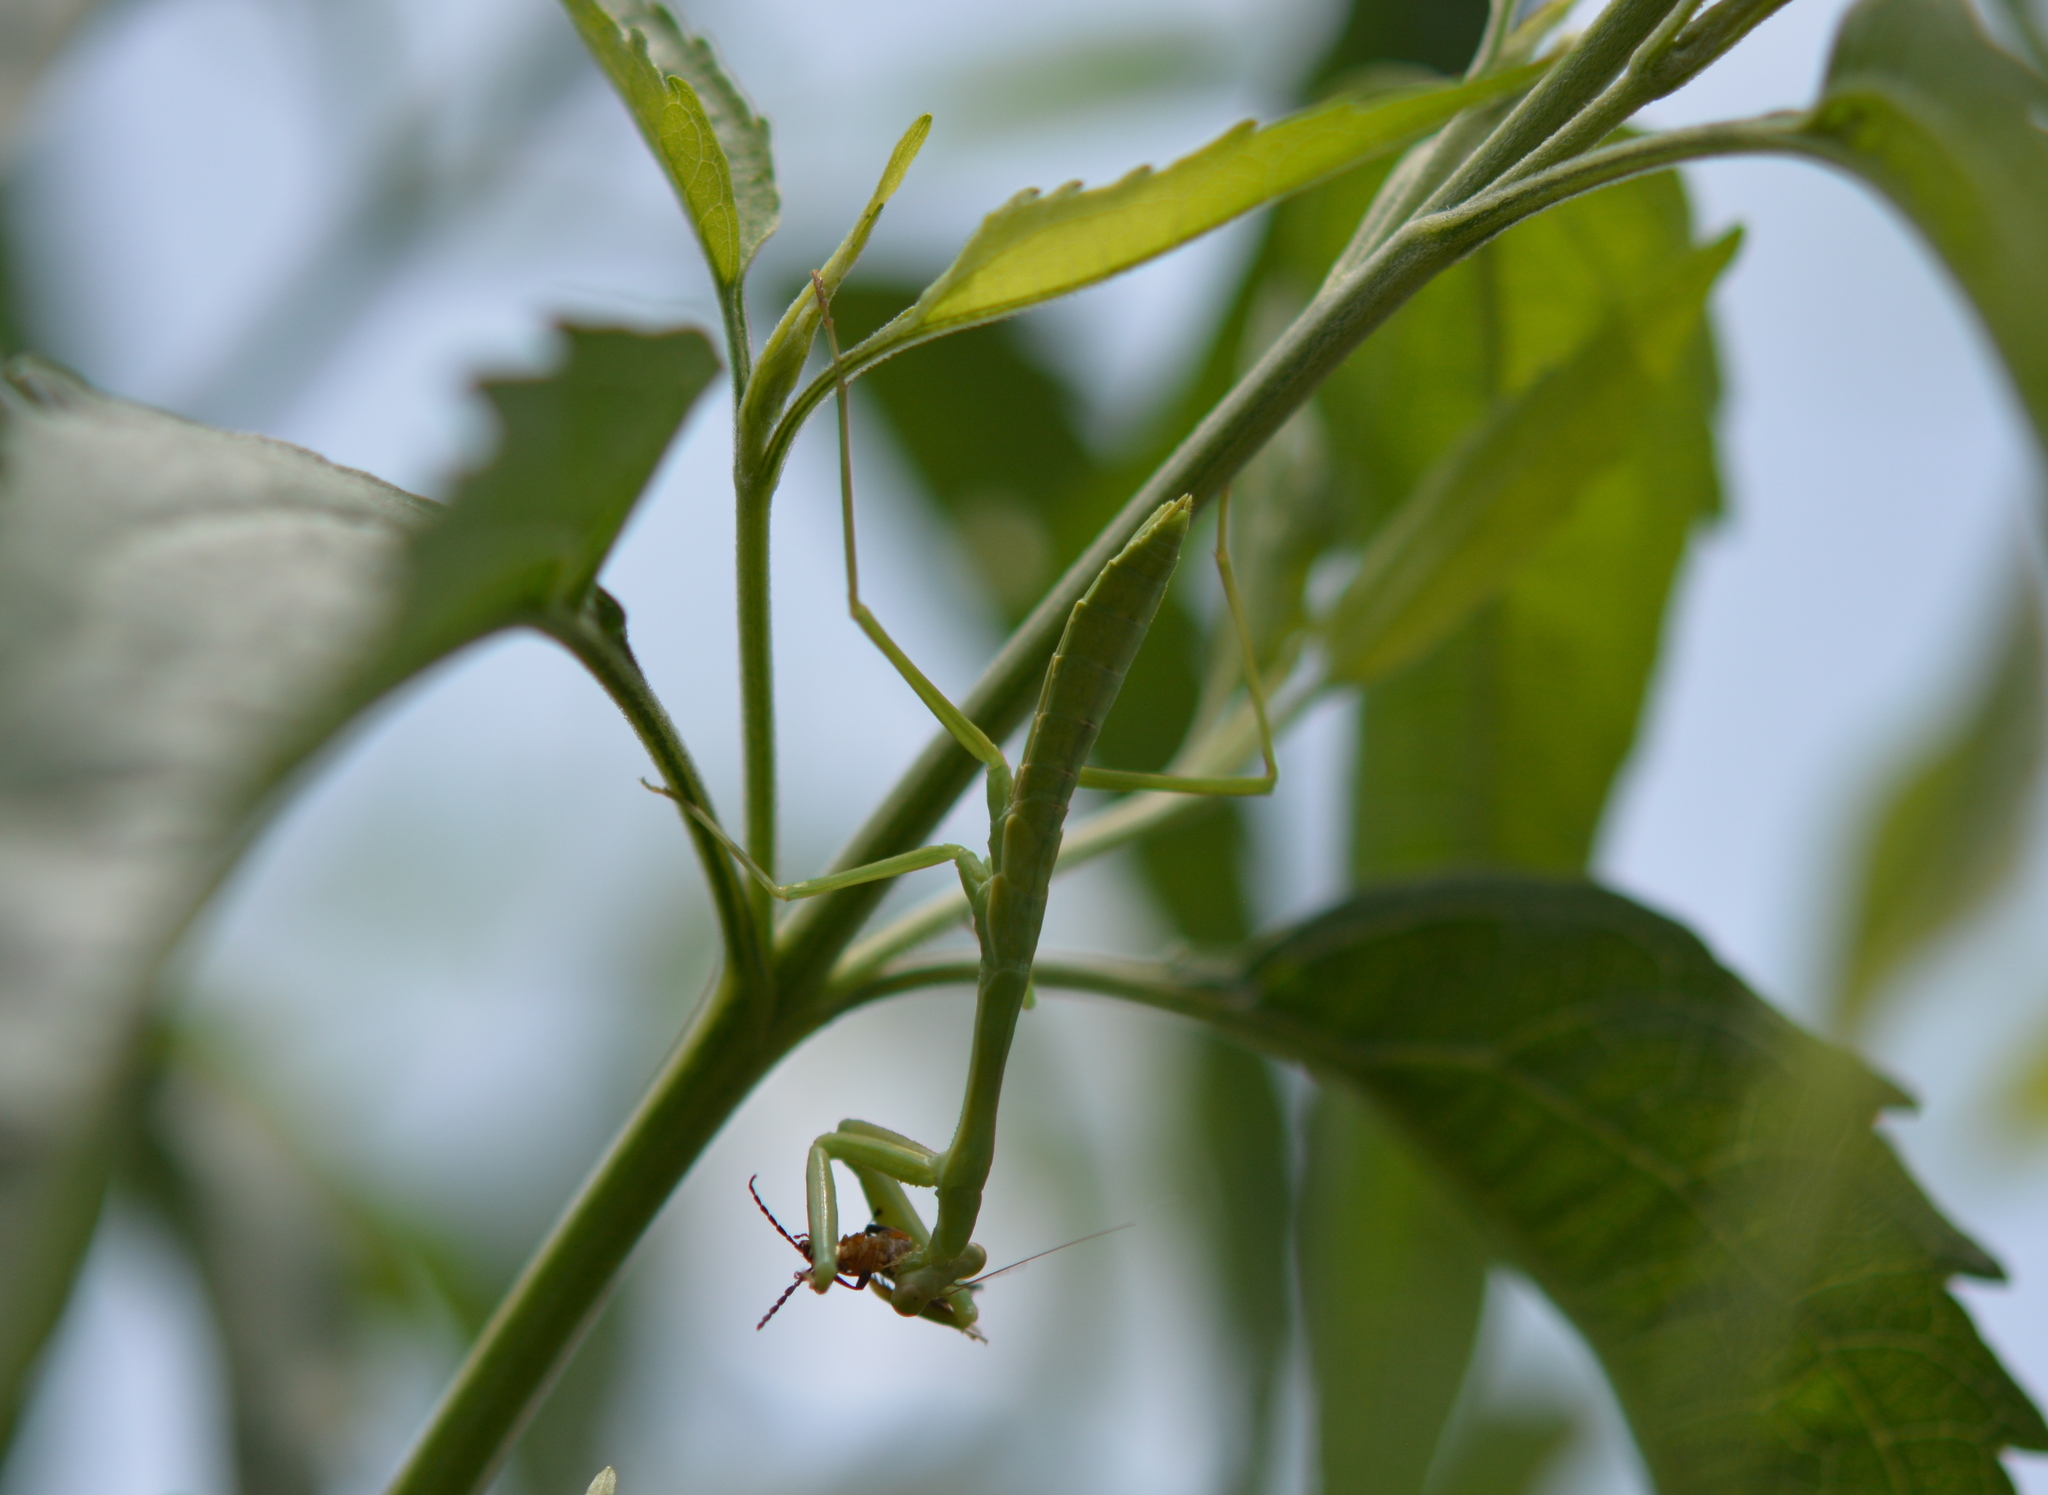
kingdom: Animalia
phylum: Arthropoda
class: Insecta
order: Mantodea
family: Mantidae
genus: Stagmomantis
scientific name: Stagmomantis carolina
